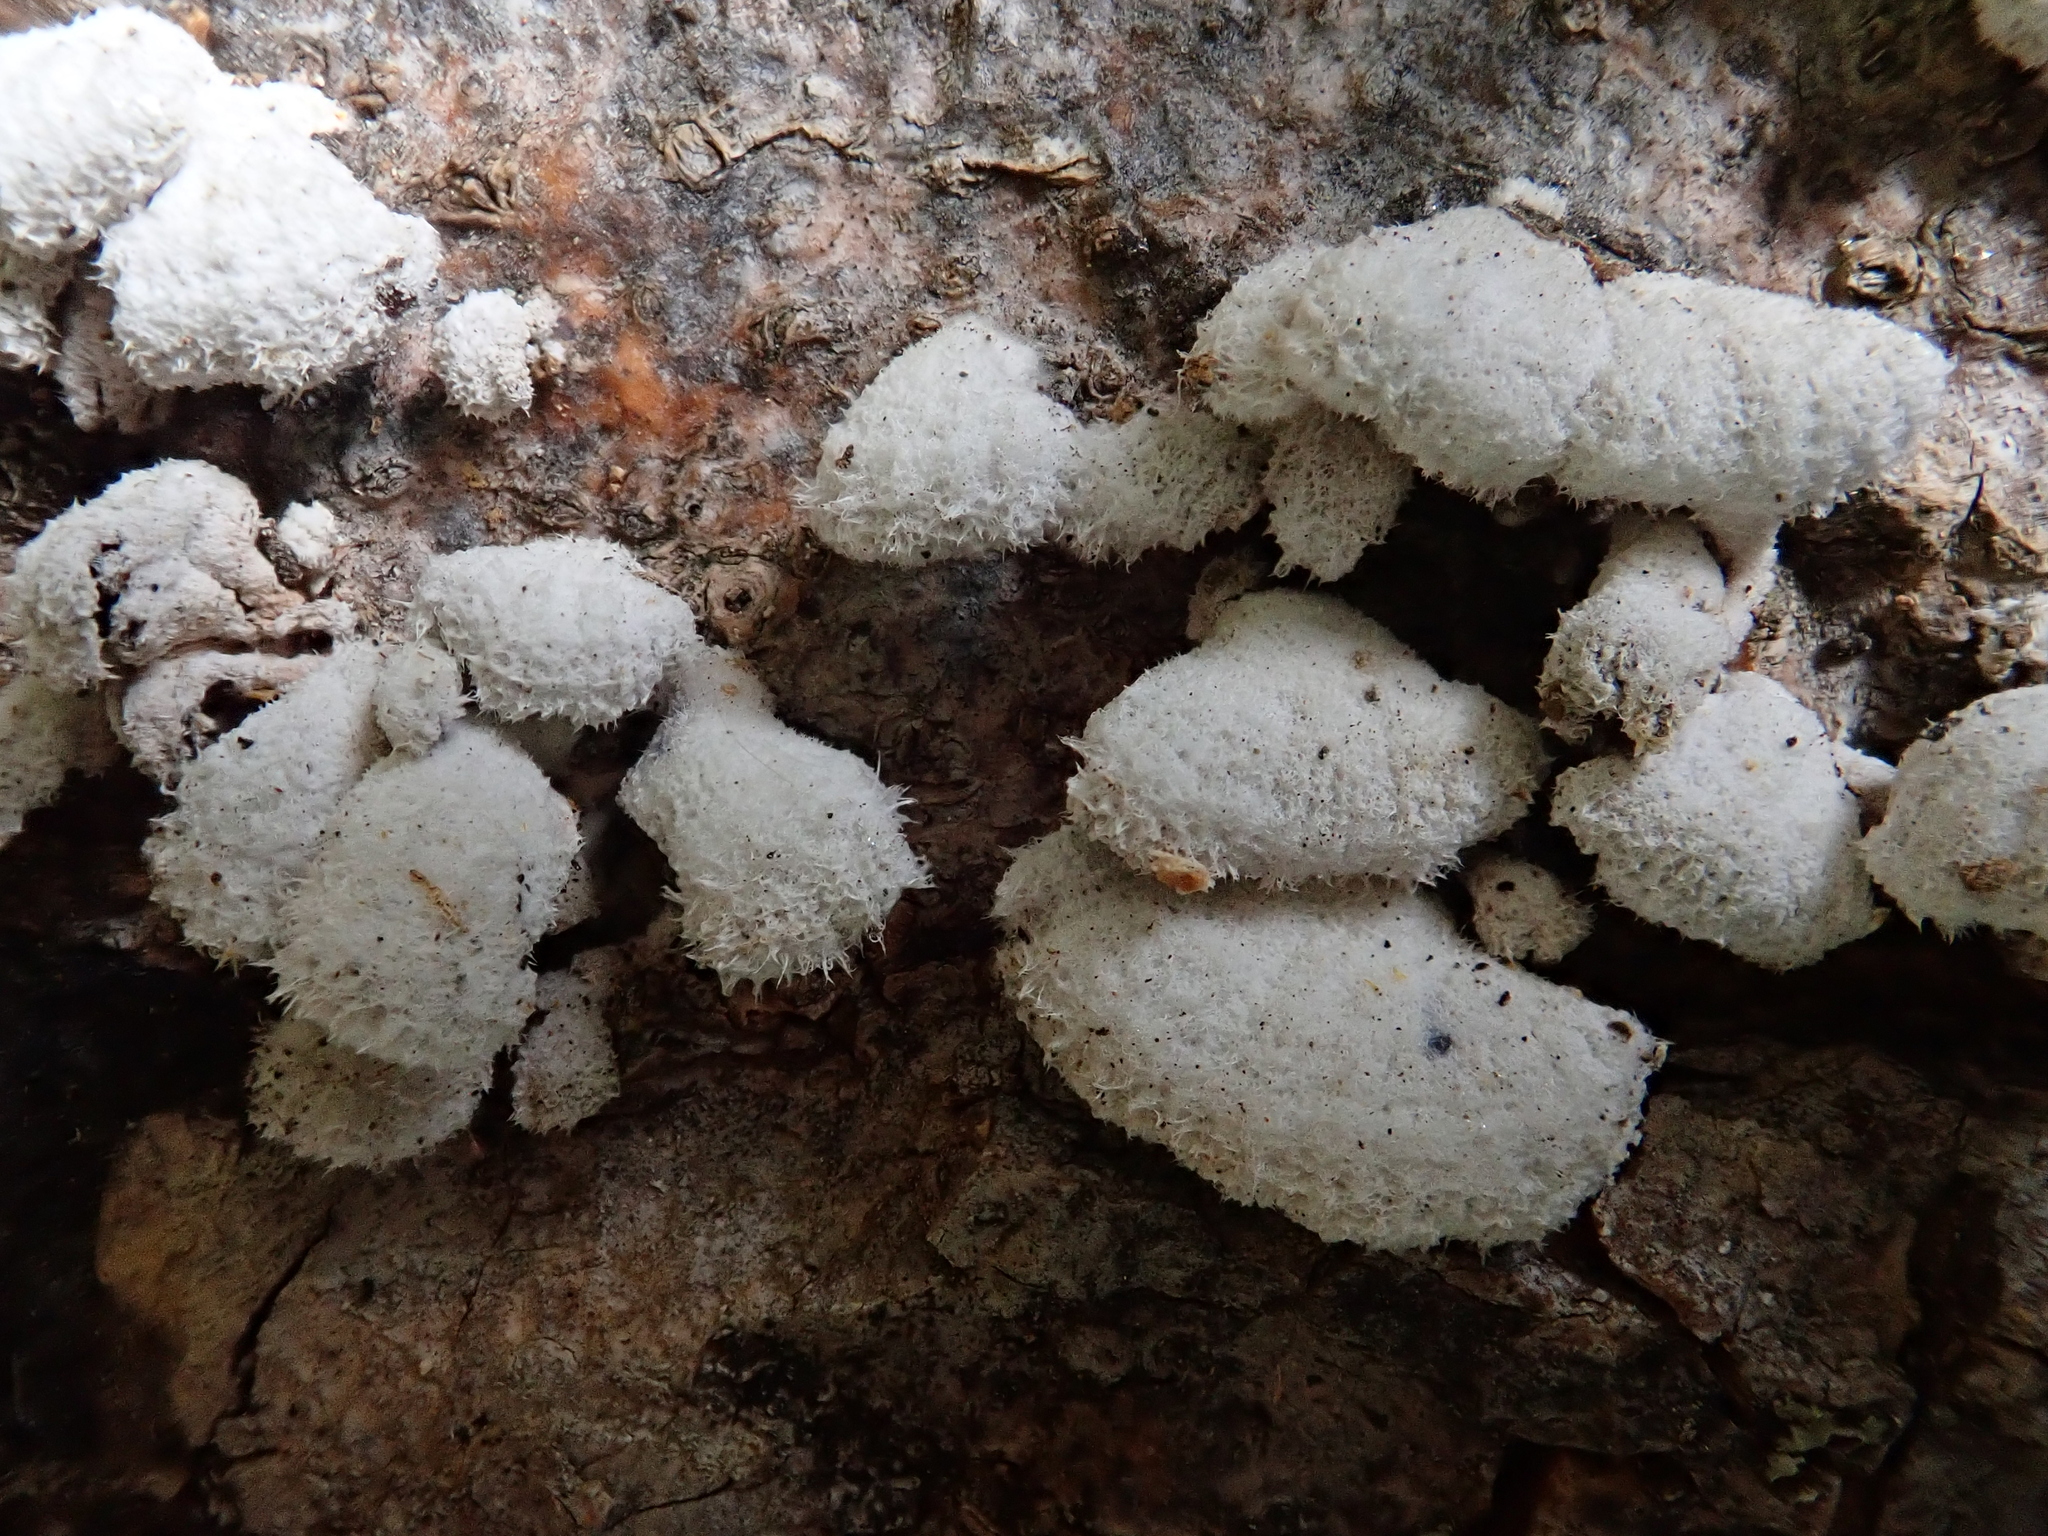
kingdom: Fungi
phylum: Basidiomycota
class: Agaricomycetes
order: Agaricales
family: Schizophyllaceae
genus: Schizophyllum
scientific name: Schizophyllum commune
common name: Common porecrust
